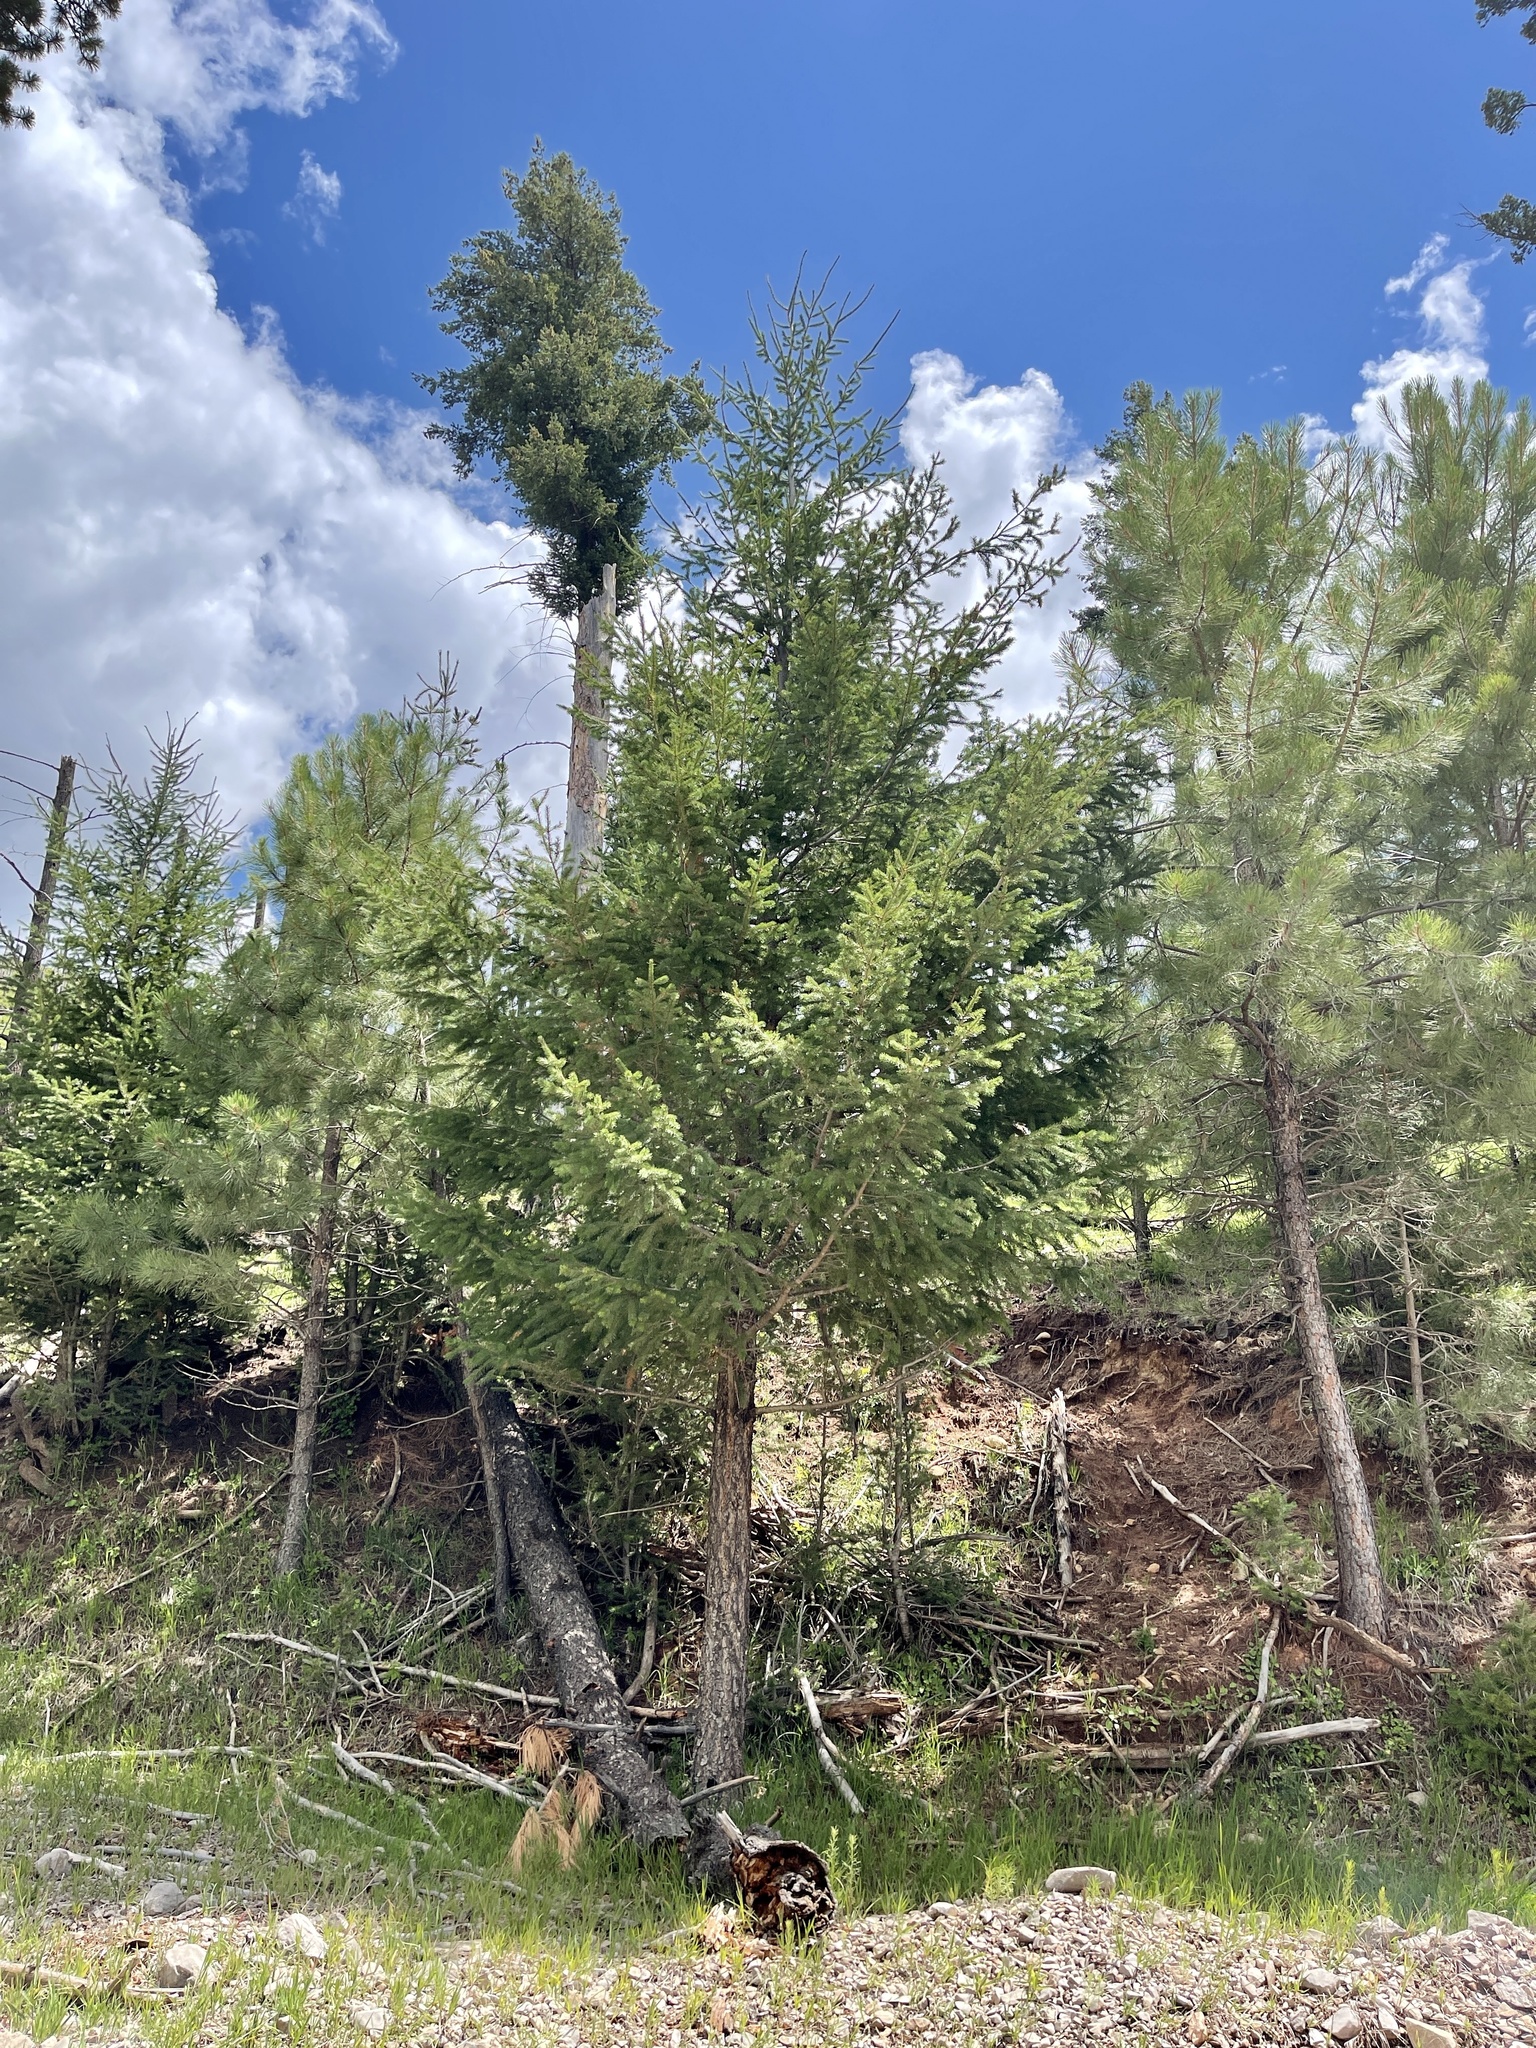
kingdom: Plantae
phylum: Tracheophyta
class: Pinopsida
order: Pinales
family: Pinaceae
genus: Pseudotsuga
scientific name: Pseudotsuga menziesii
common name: Douglas fir
